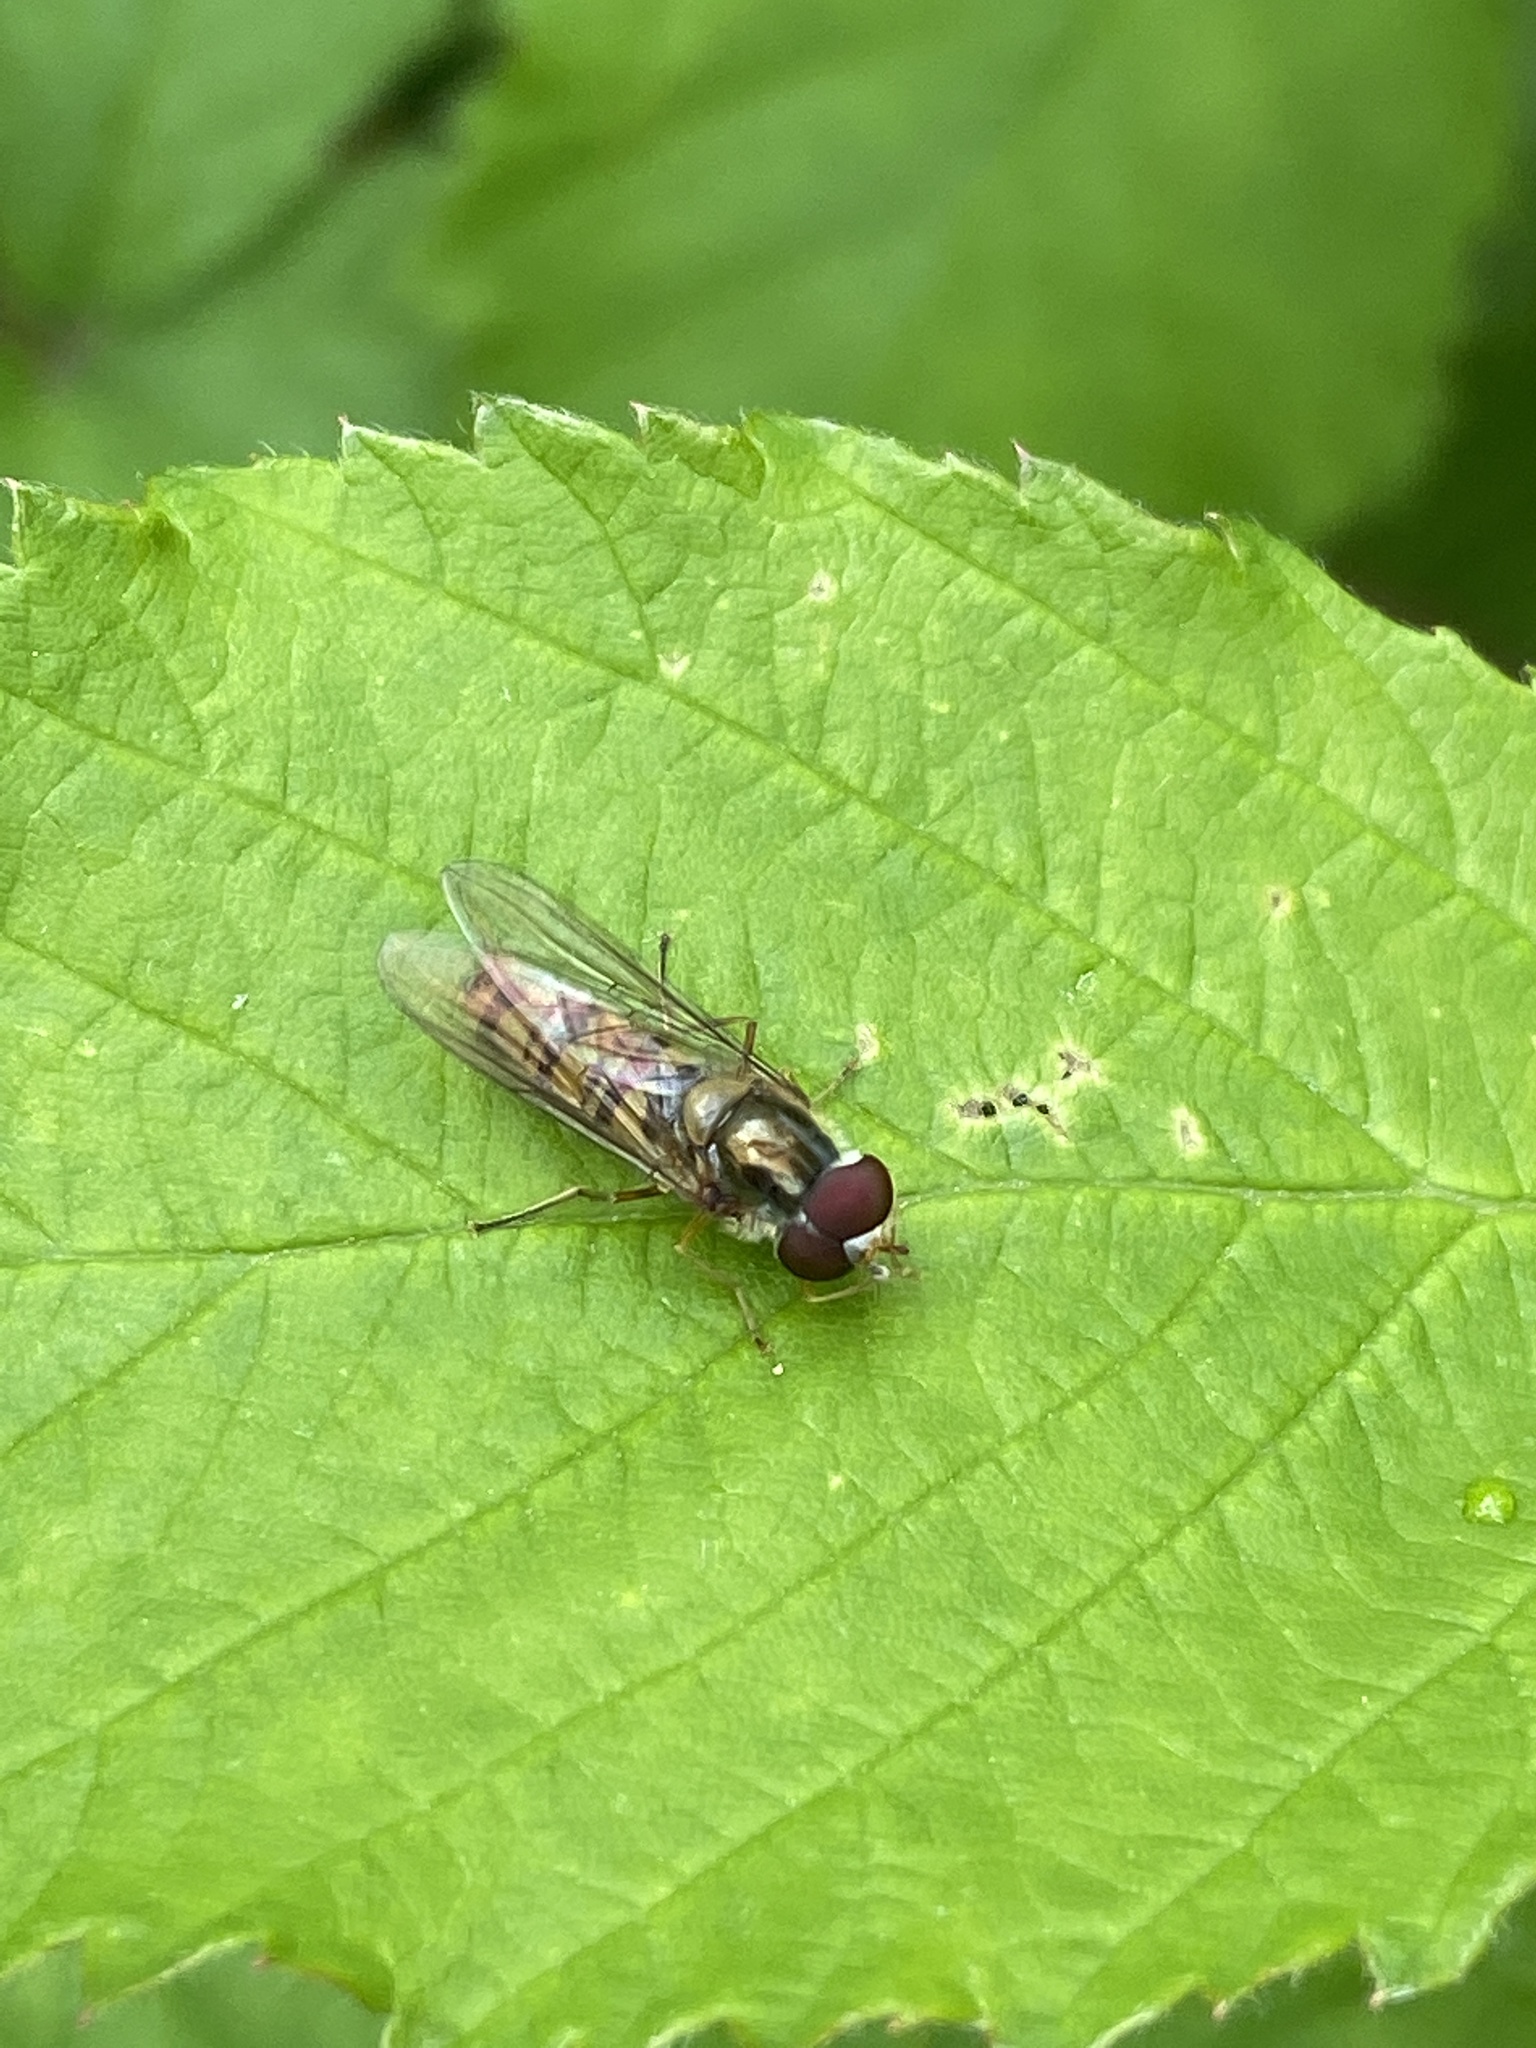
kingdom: Animalia
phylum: Arthropoda
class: Insecta
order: Diptera
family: Syrphidae
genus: Episyrphus
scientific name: Episyrphus balteatus
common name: Marmalade hoverfly
